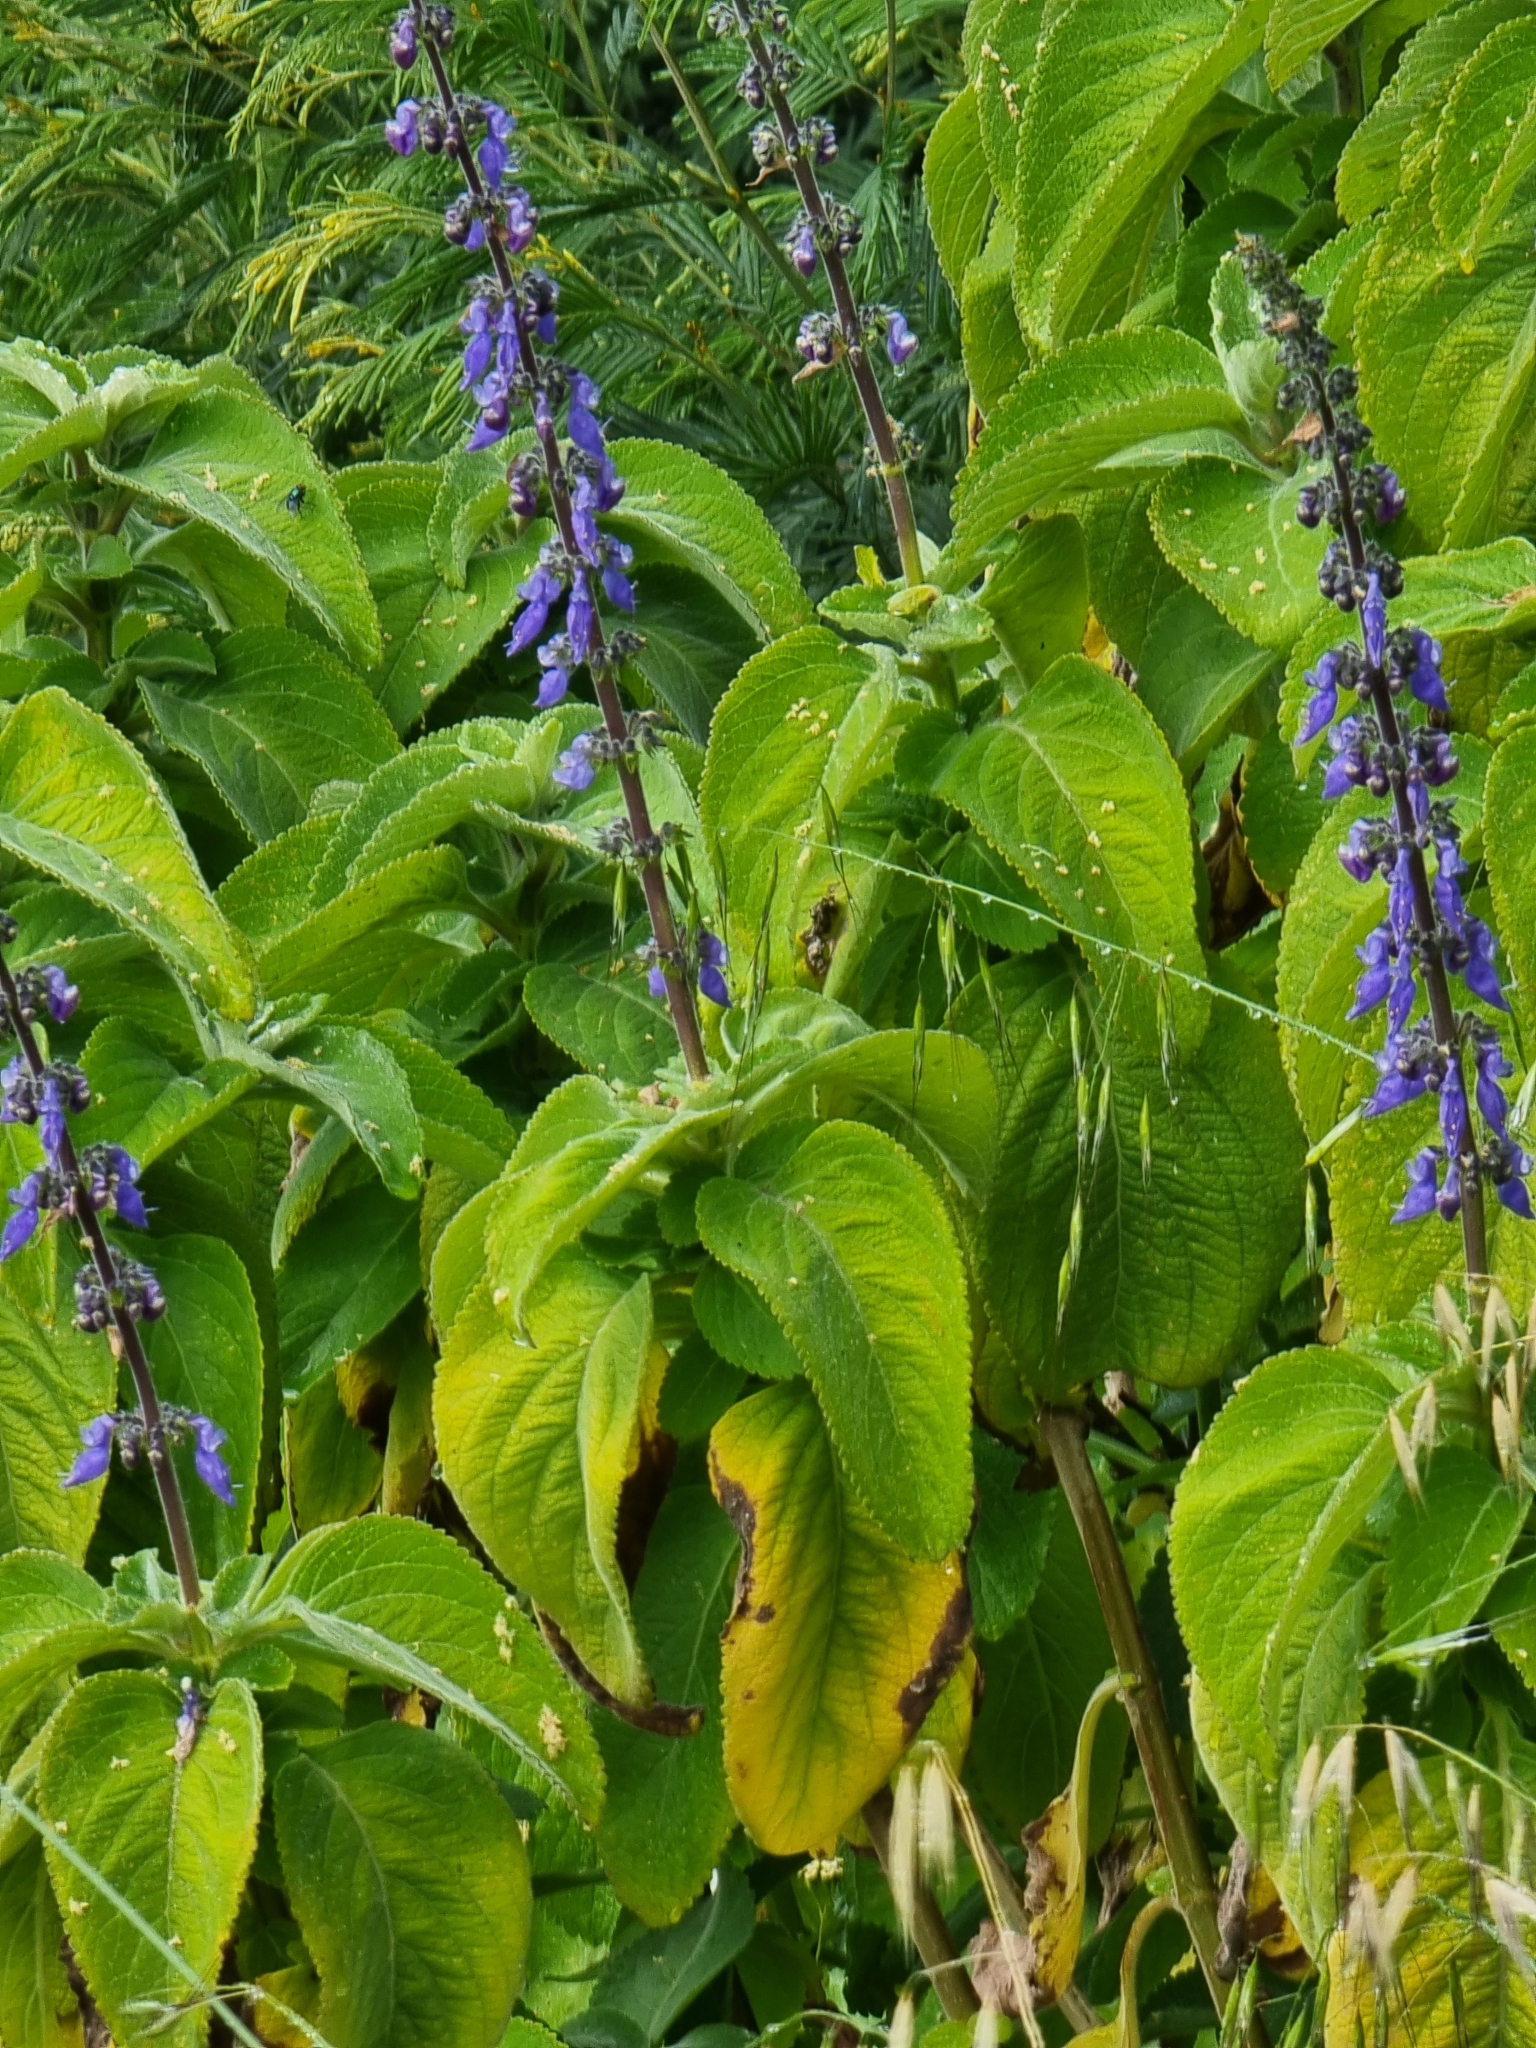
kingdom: Plantae
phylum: Tracheophyta
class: Magnoliopsida
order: Lamiales
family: Lamiaceae
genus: Coleus
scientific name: Coleus barbatus
